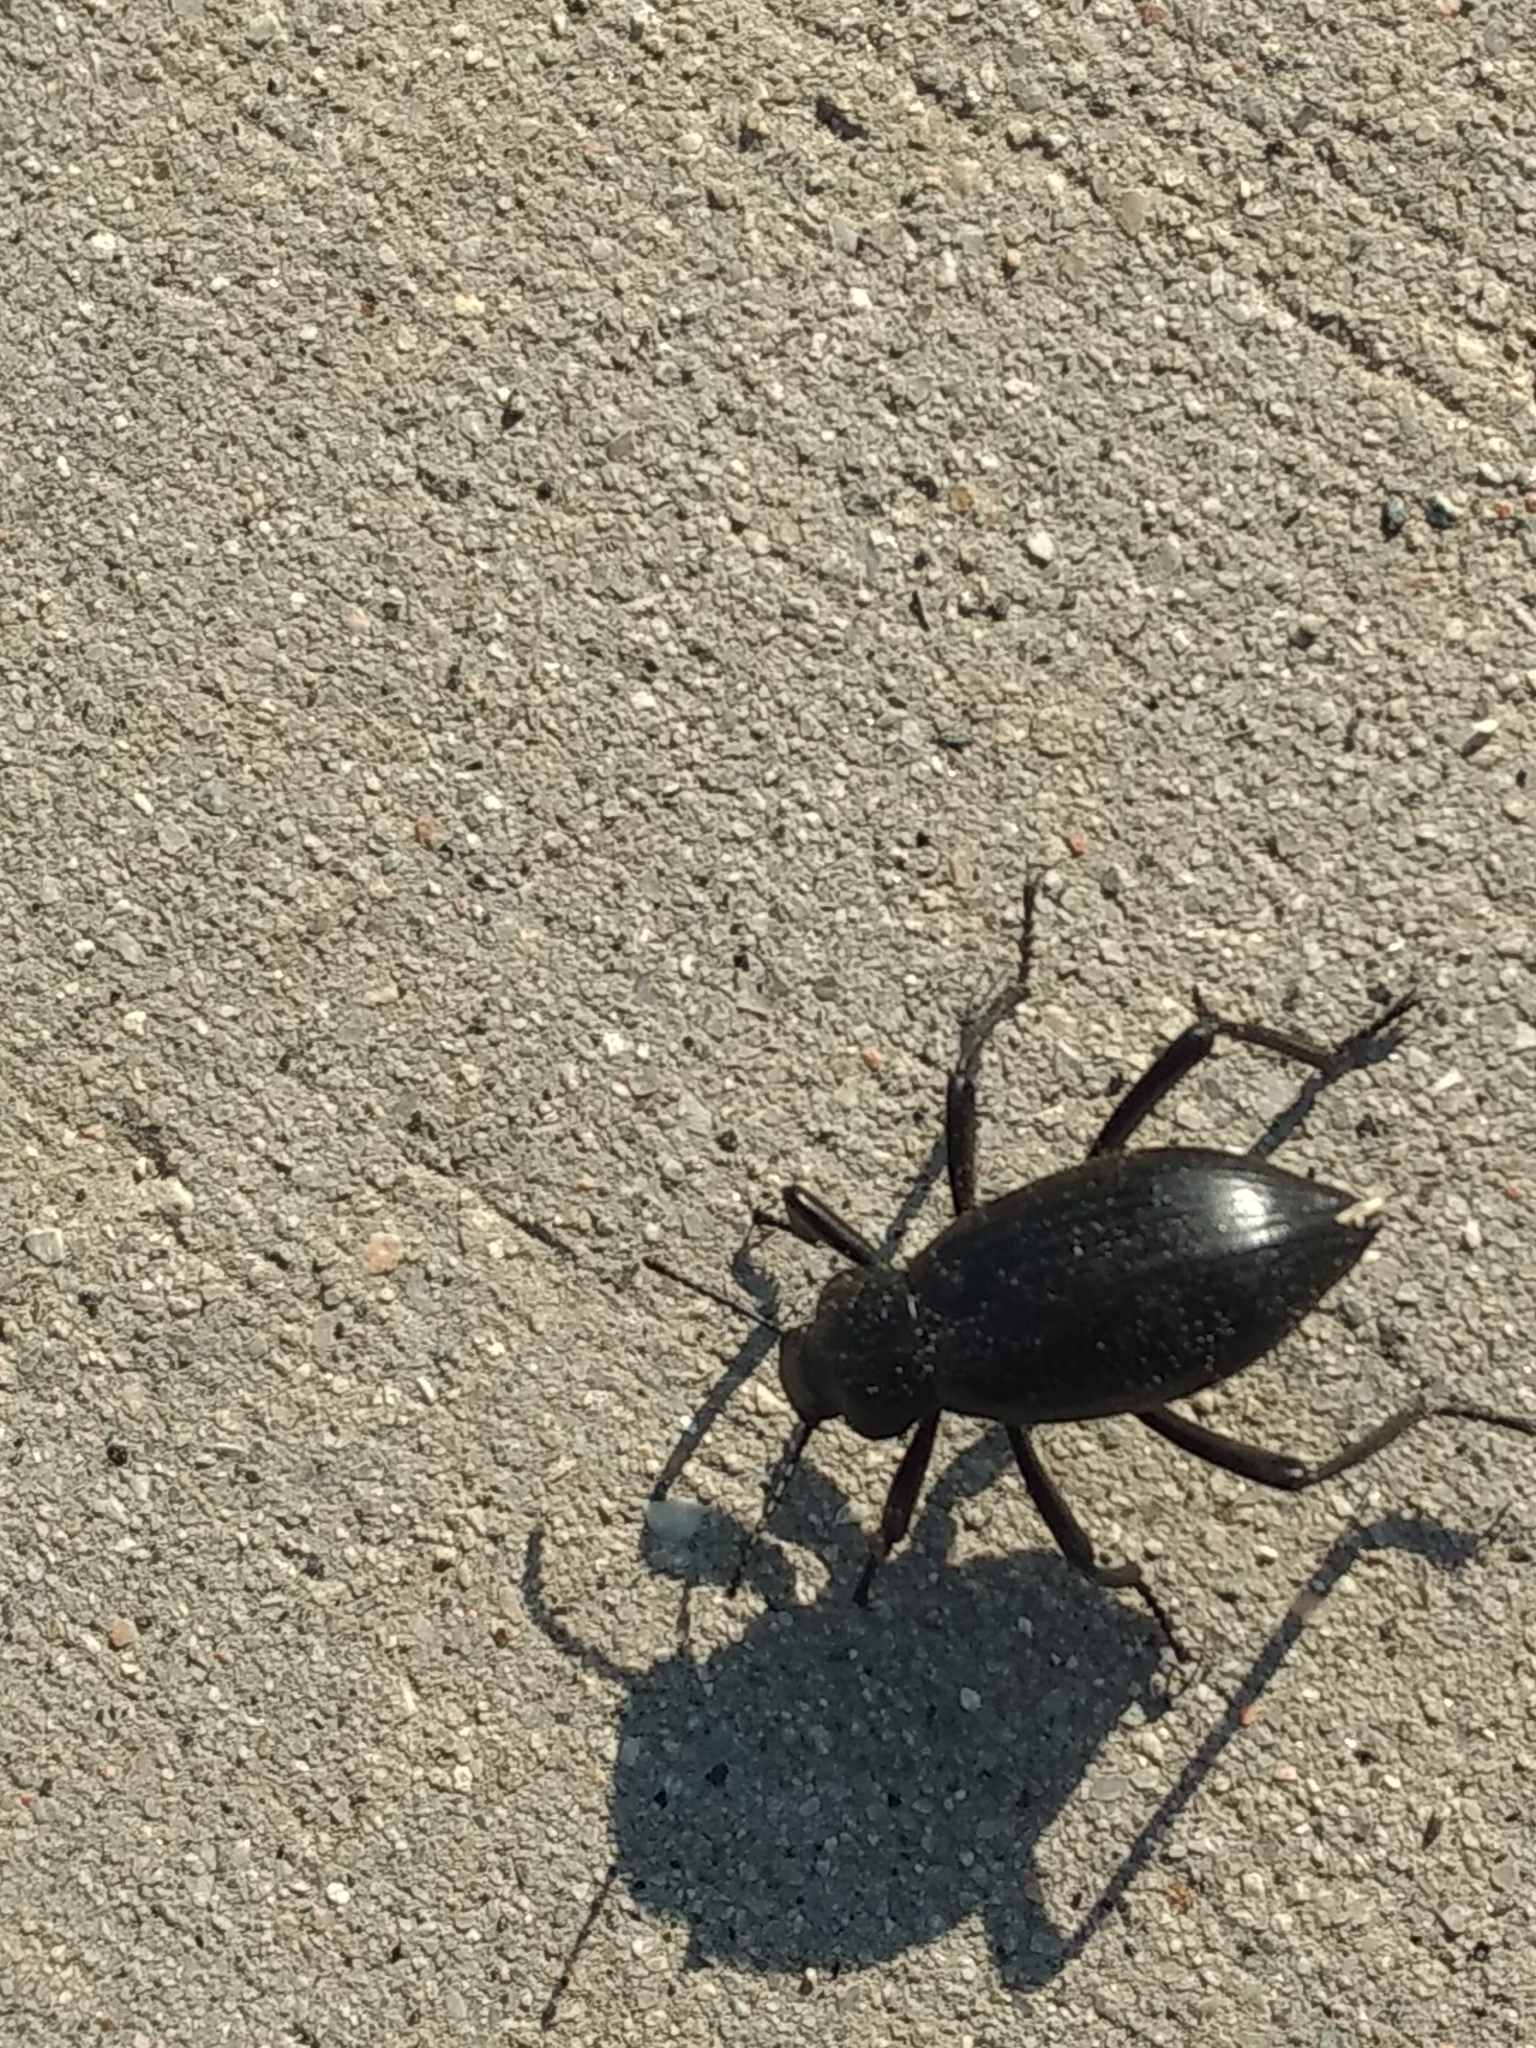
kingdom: Animalia
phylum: Arthropoda
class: Insecta
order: Coleoptera
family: Tenebrionidae
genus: Eleodes
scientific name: Eleodes gracilis
